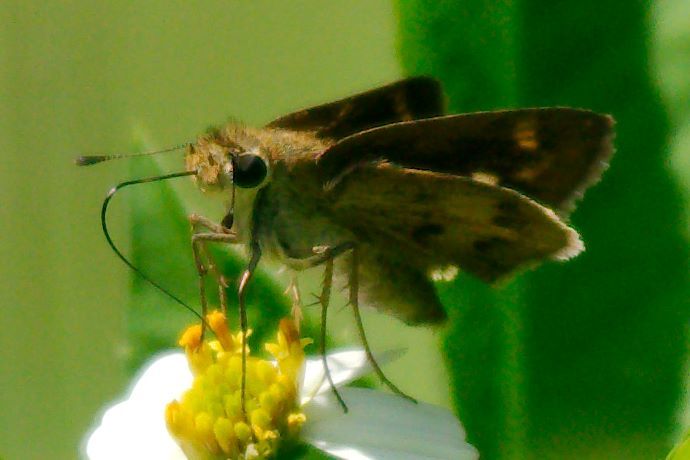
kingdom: Animalia
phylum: Arthropoda
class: Insecta
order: Lepidoptera
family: Hesperiidae
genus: Polites
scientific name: Polites vibex
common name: Whirlabout
